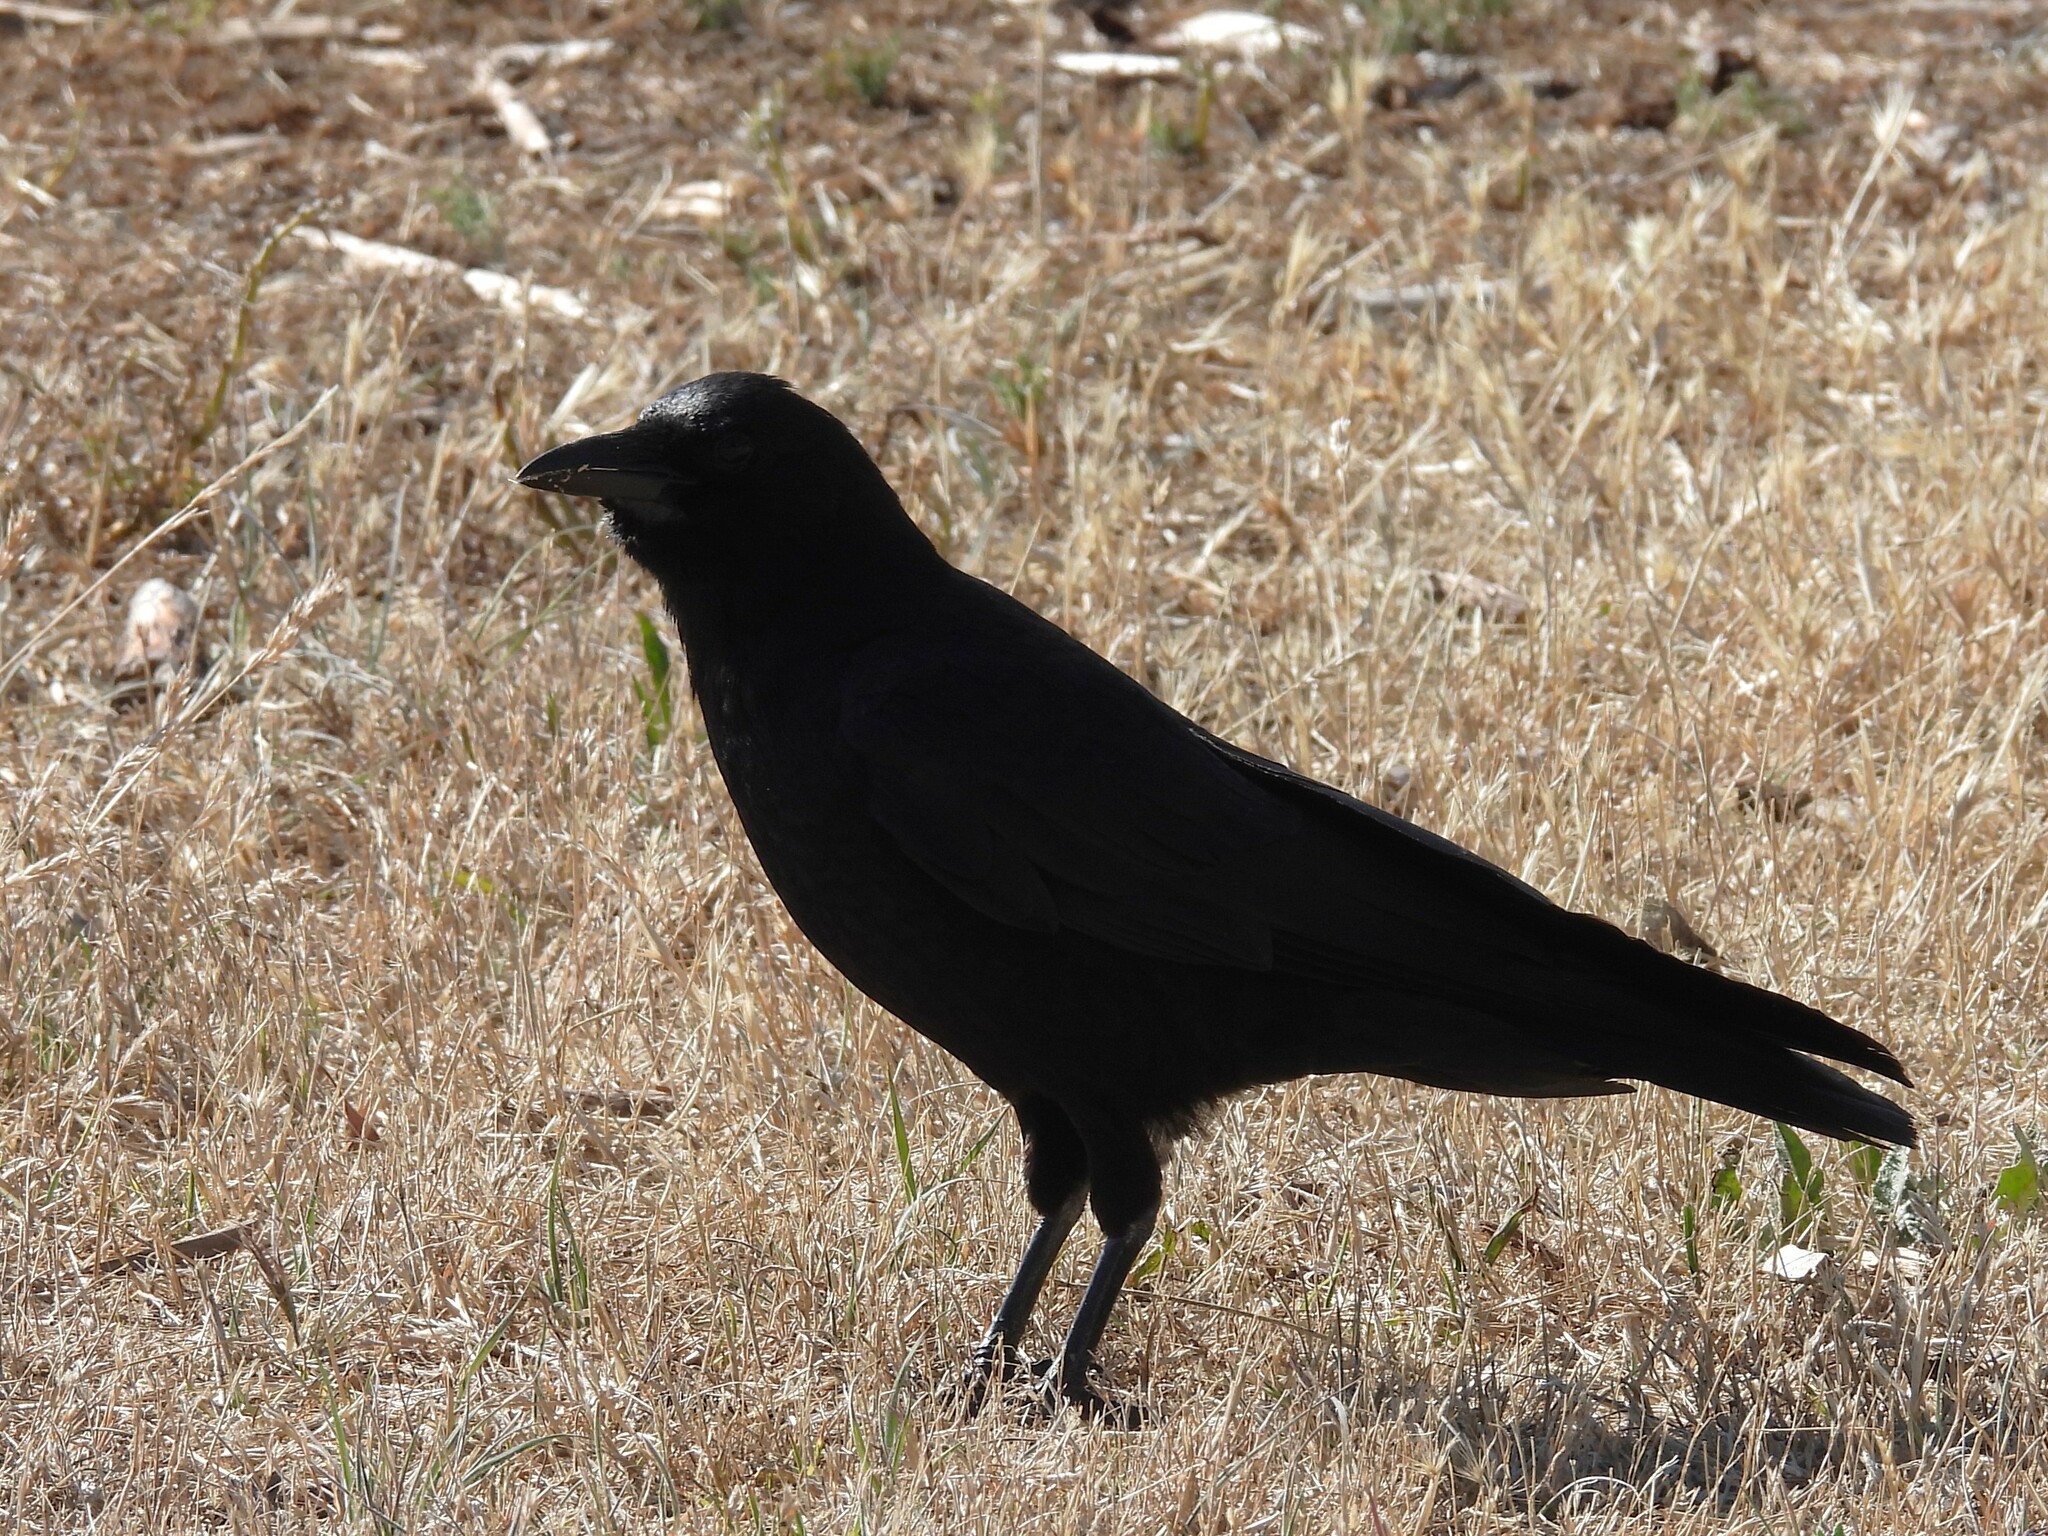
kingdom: Animalia
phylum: Chordata
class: Aves
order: Passeriformes
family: Corvidae
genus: Corvus
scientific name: Corvus brachyrhynchos
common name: American crow
